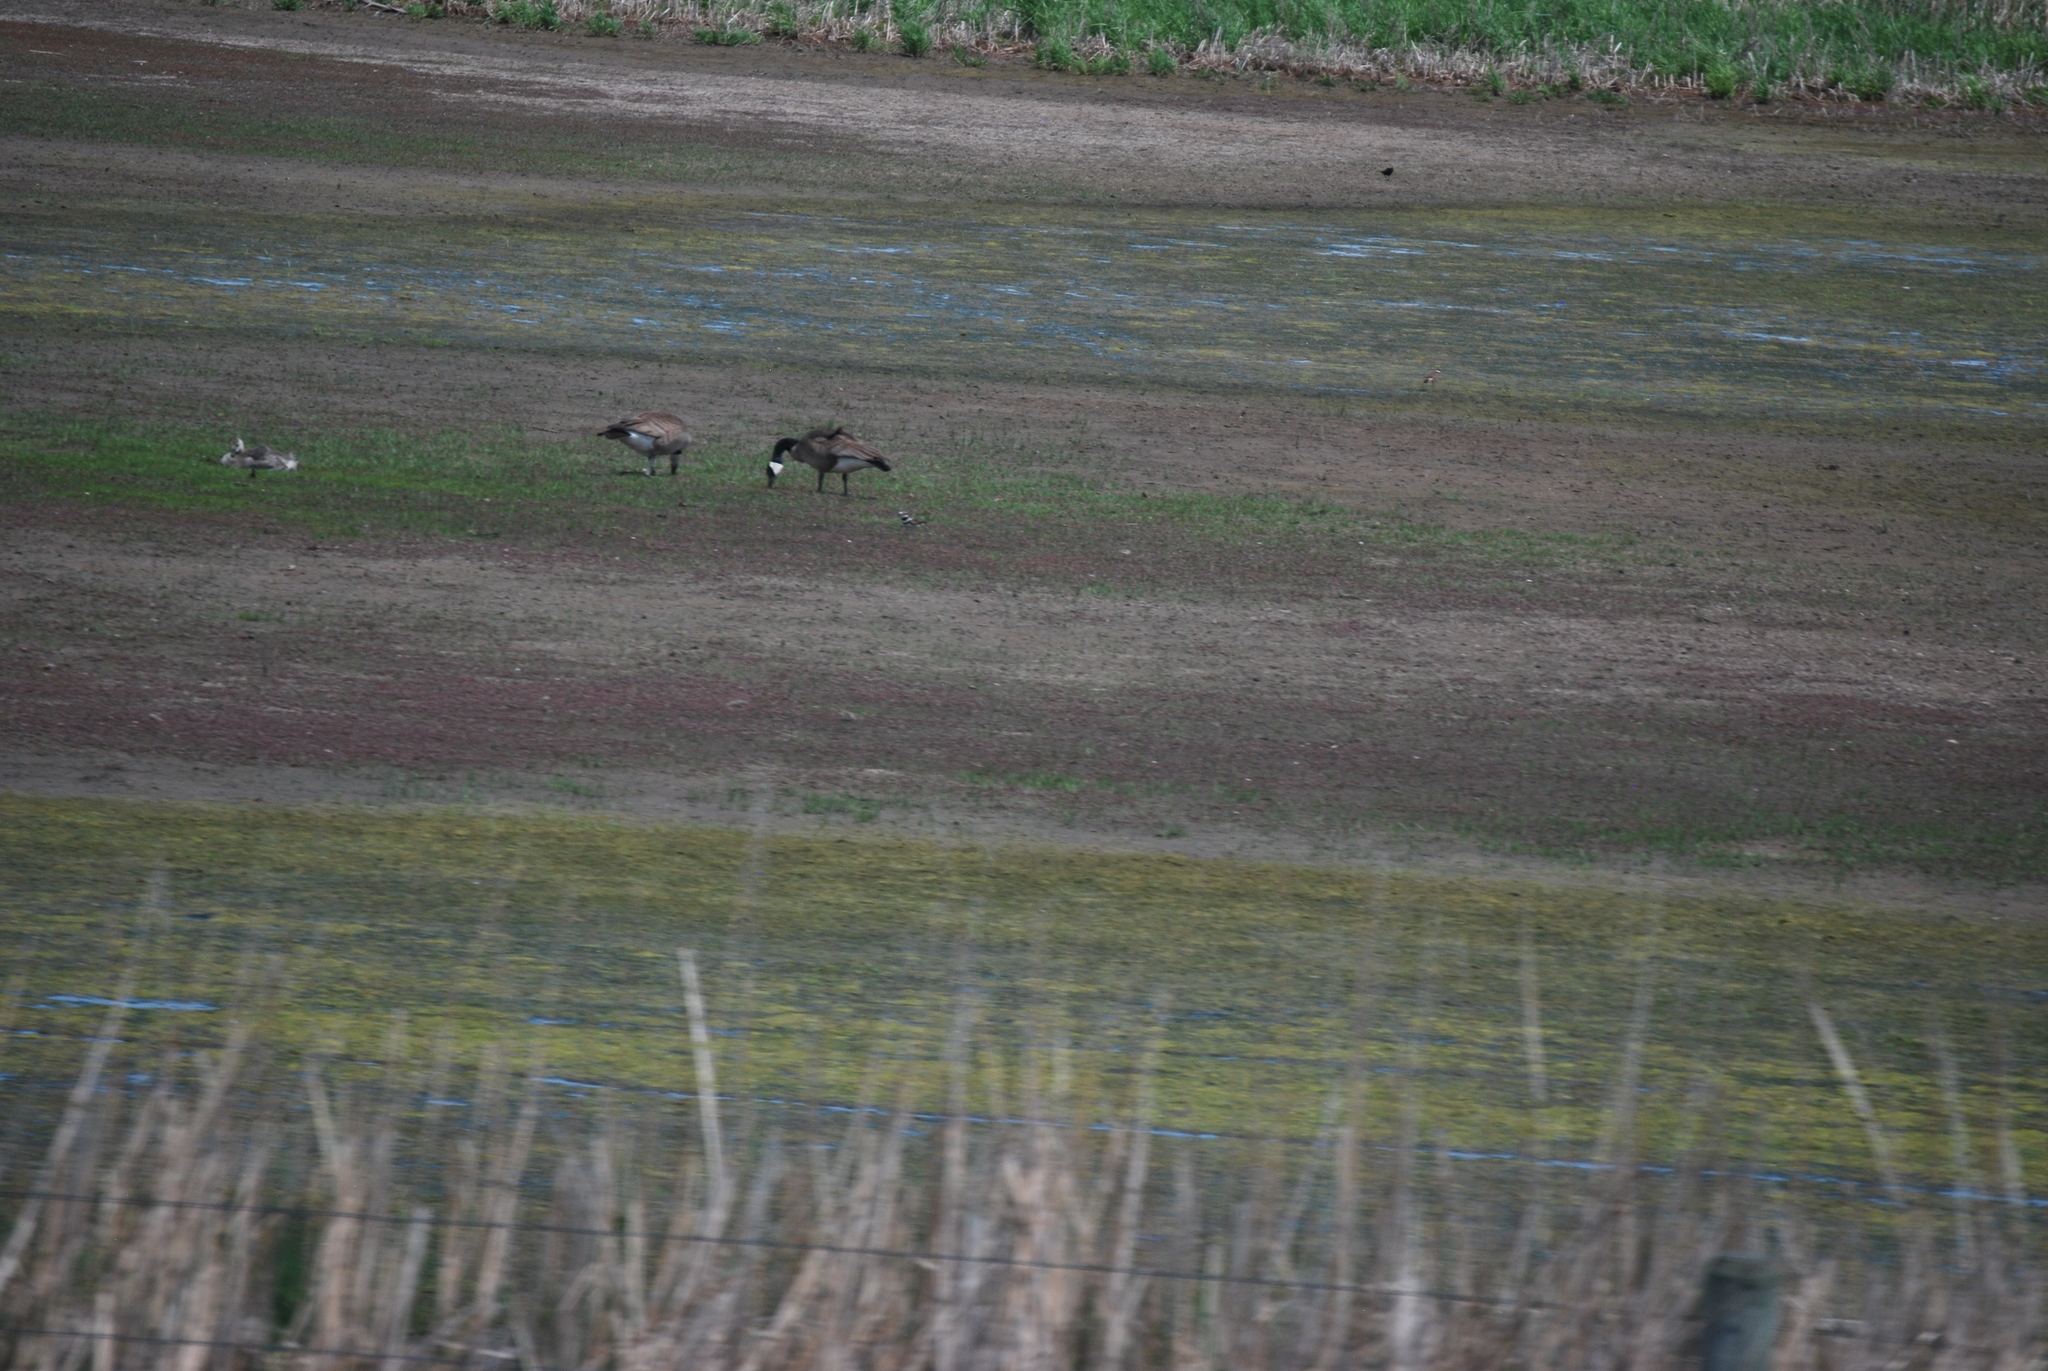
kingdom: Animalia
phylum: Chordata
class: Aves
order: Charadriiformes
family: Charadriidae
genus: Charadrius
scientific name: Charadrius vociferus
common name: Killdeer
